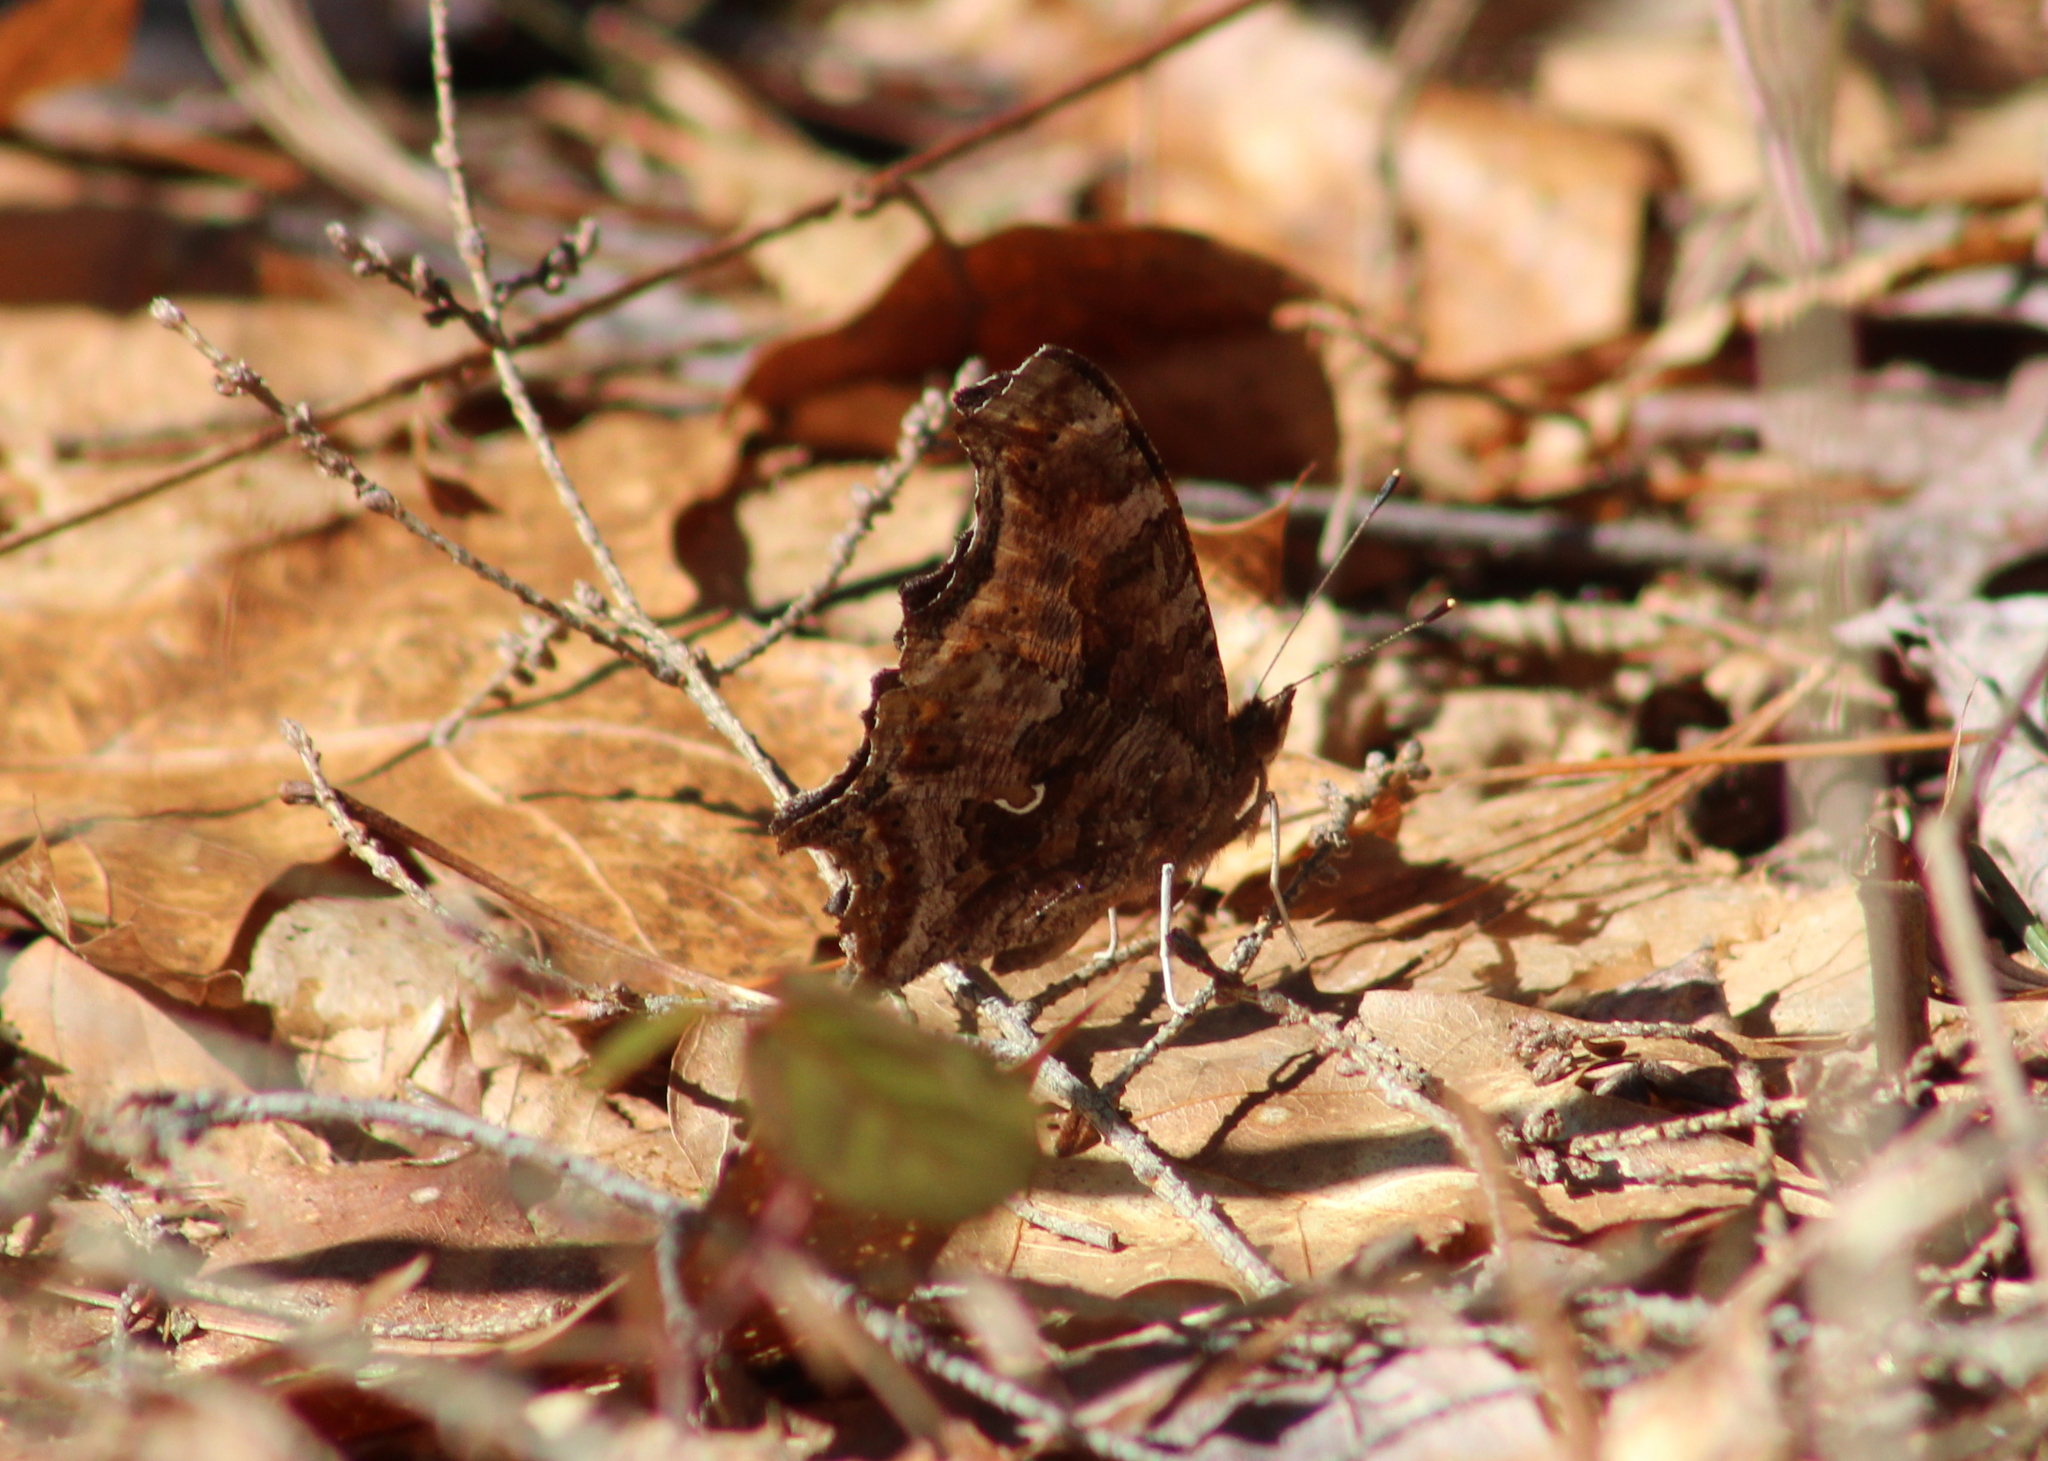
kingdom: Animalia
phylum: Arthropoda
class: Insecta
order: Lepidoptera
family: Nymphalidae
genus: Polygonia
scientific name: Polygonia comma
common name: Eastern comma
